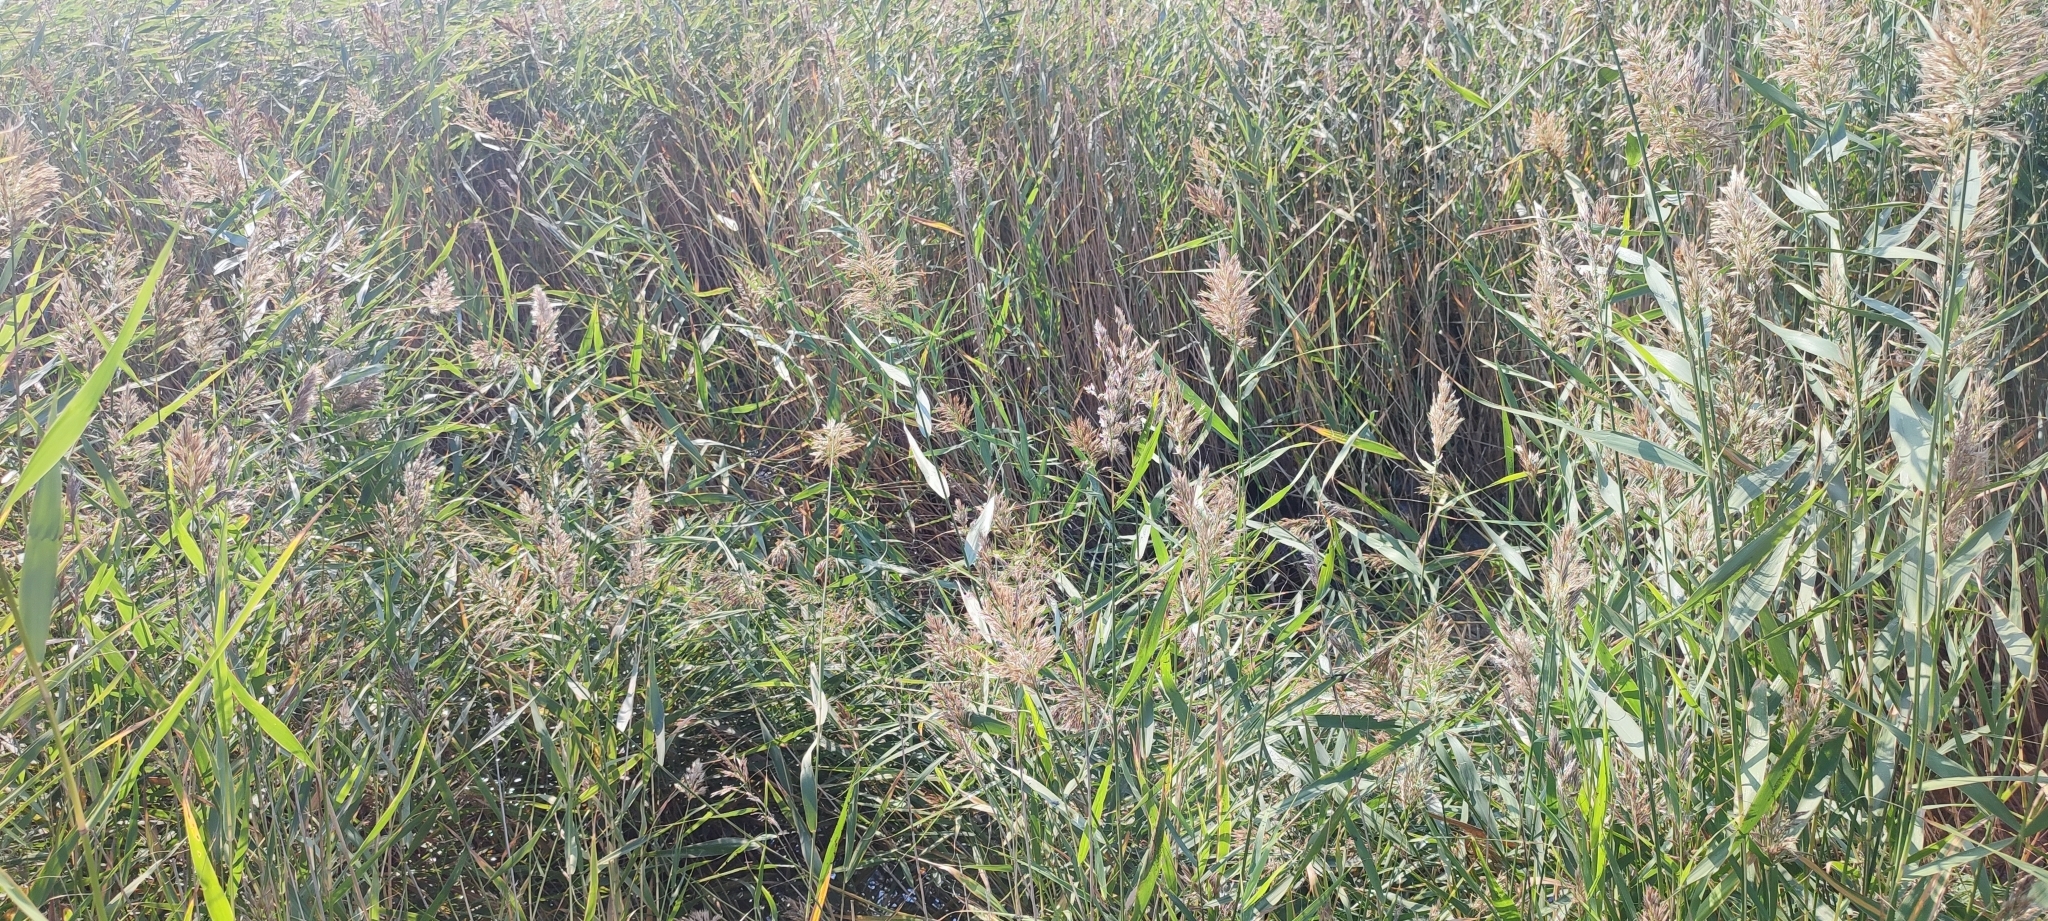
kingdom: Plantae
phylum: Tracheophyta
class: Liliopsida
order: Poales
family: Poaceae
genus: Phragmites
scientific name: Phragmites australis
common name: Common reed
